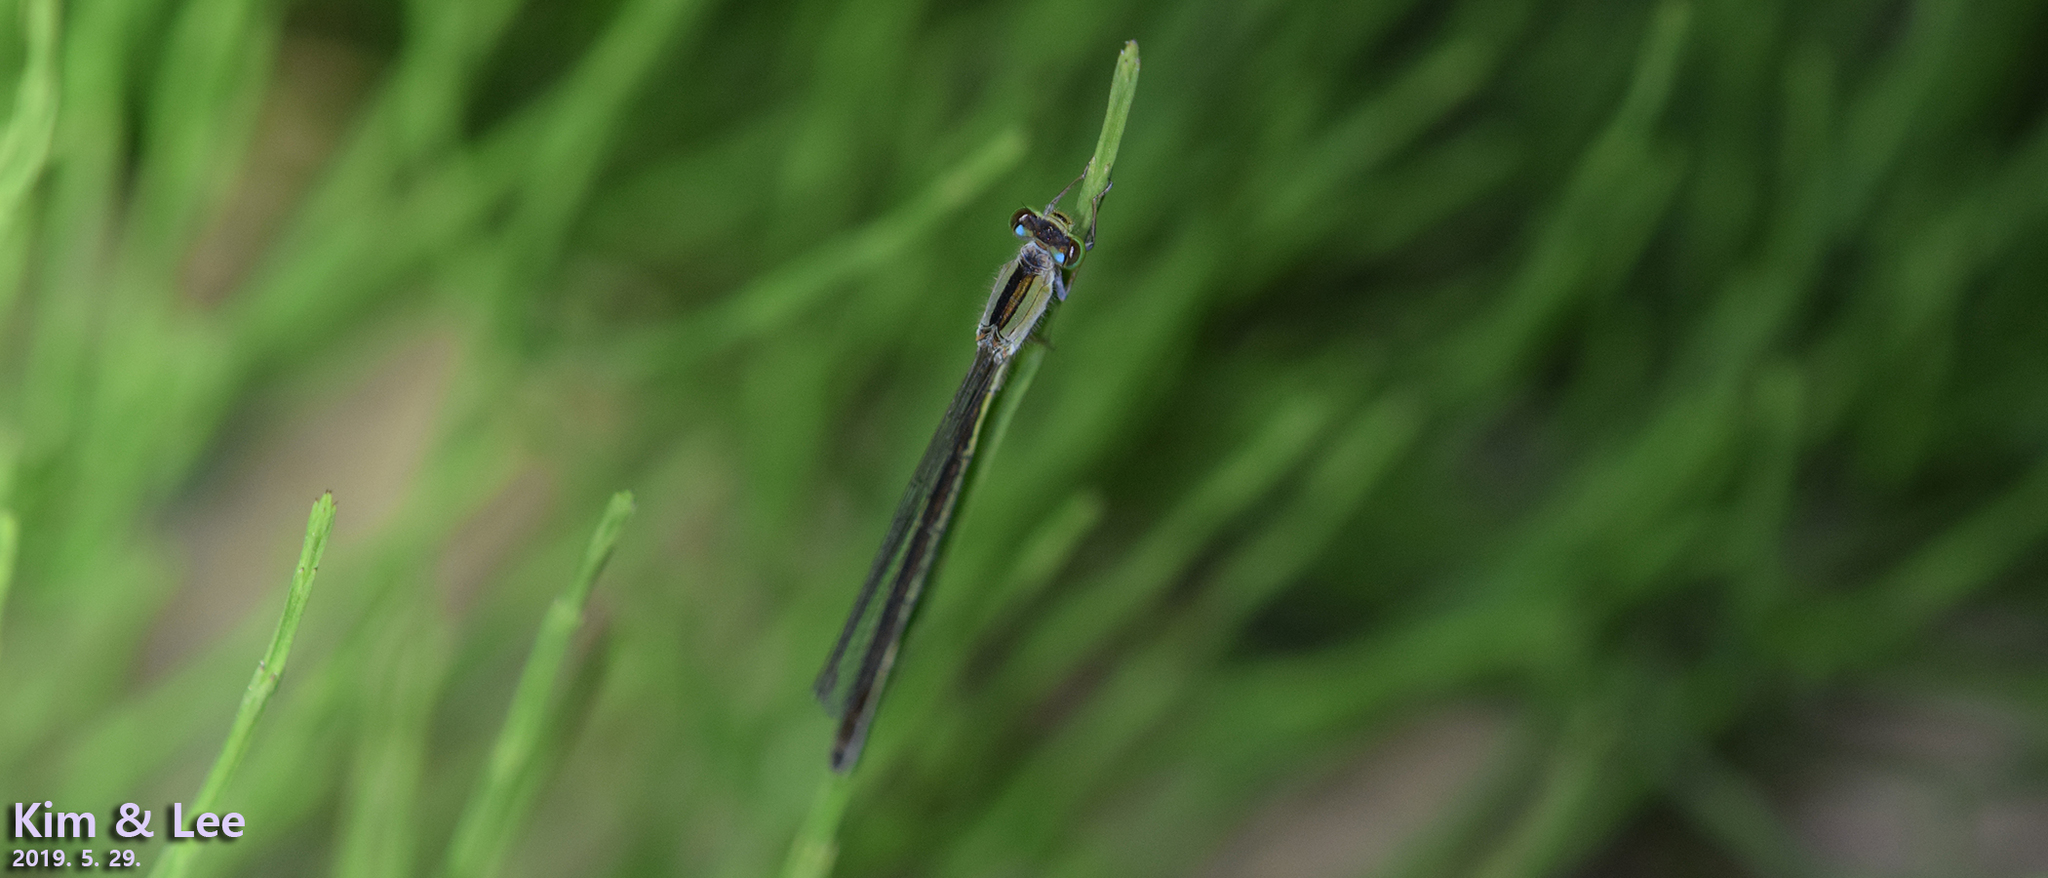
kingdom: Animalia
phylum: Arthropoda
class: Insecta
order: Odonata
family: Coenagrionidae
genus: Ischnura
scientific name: Ischnura asiatica
